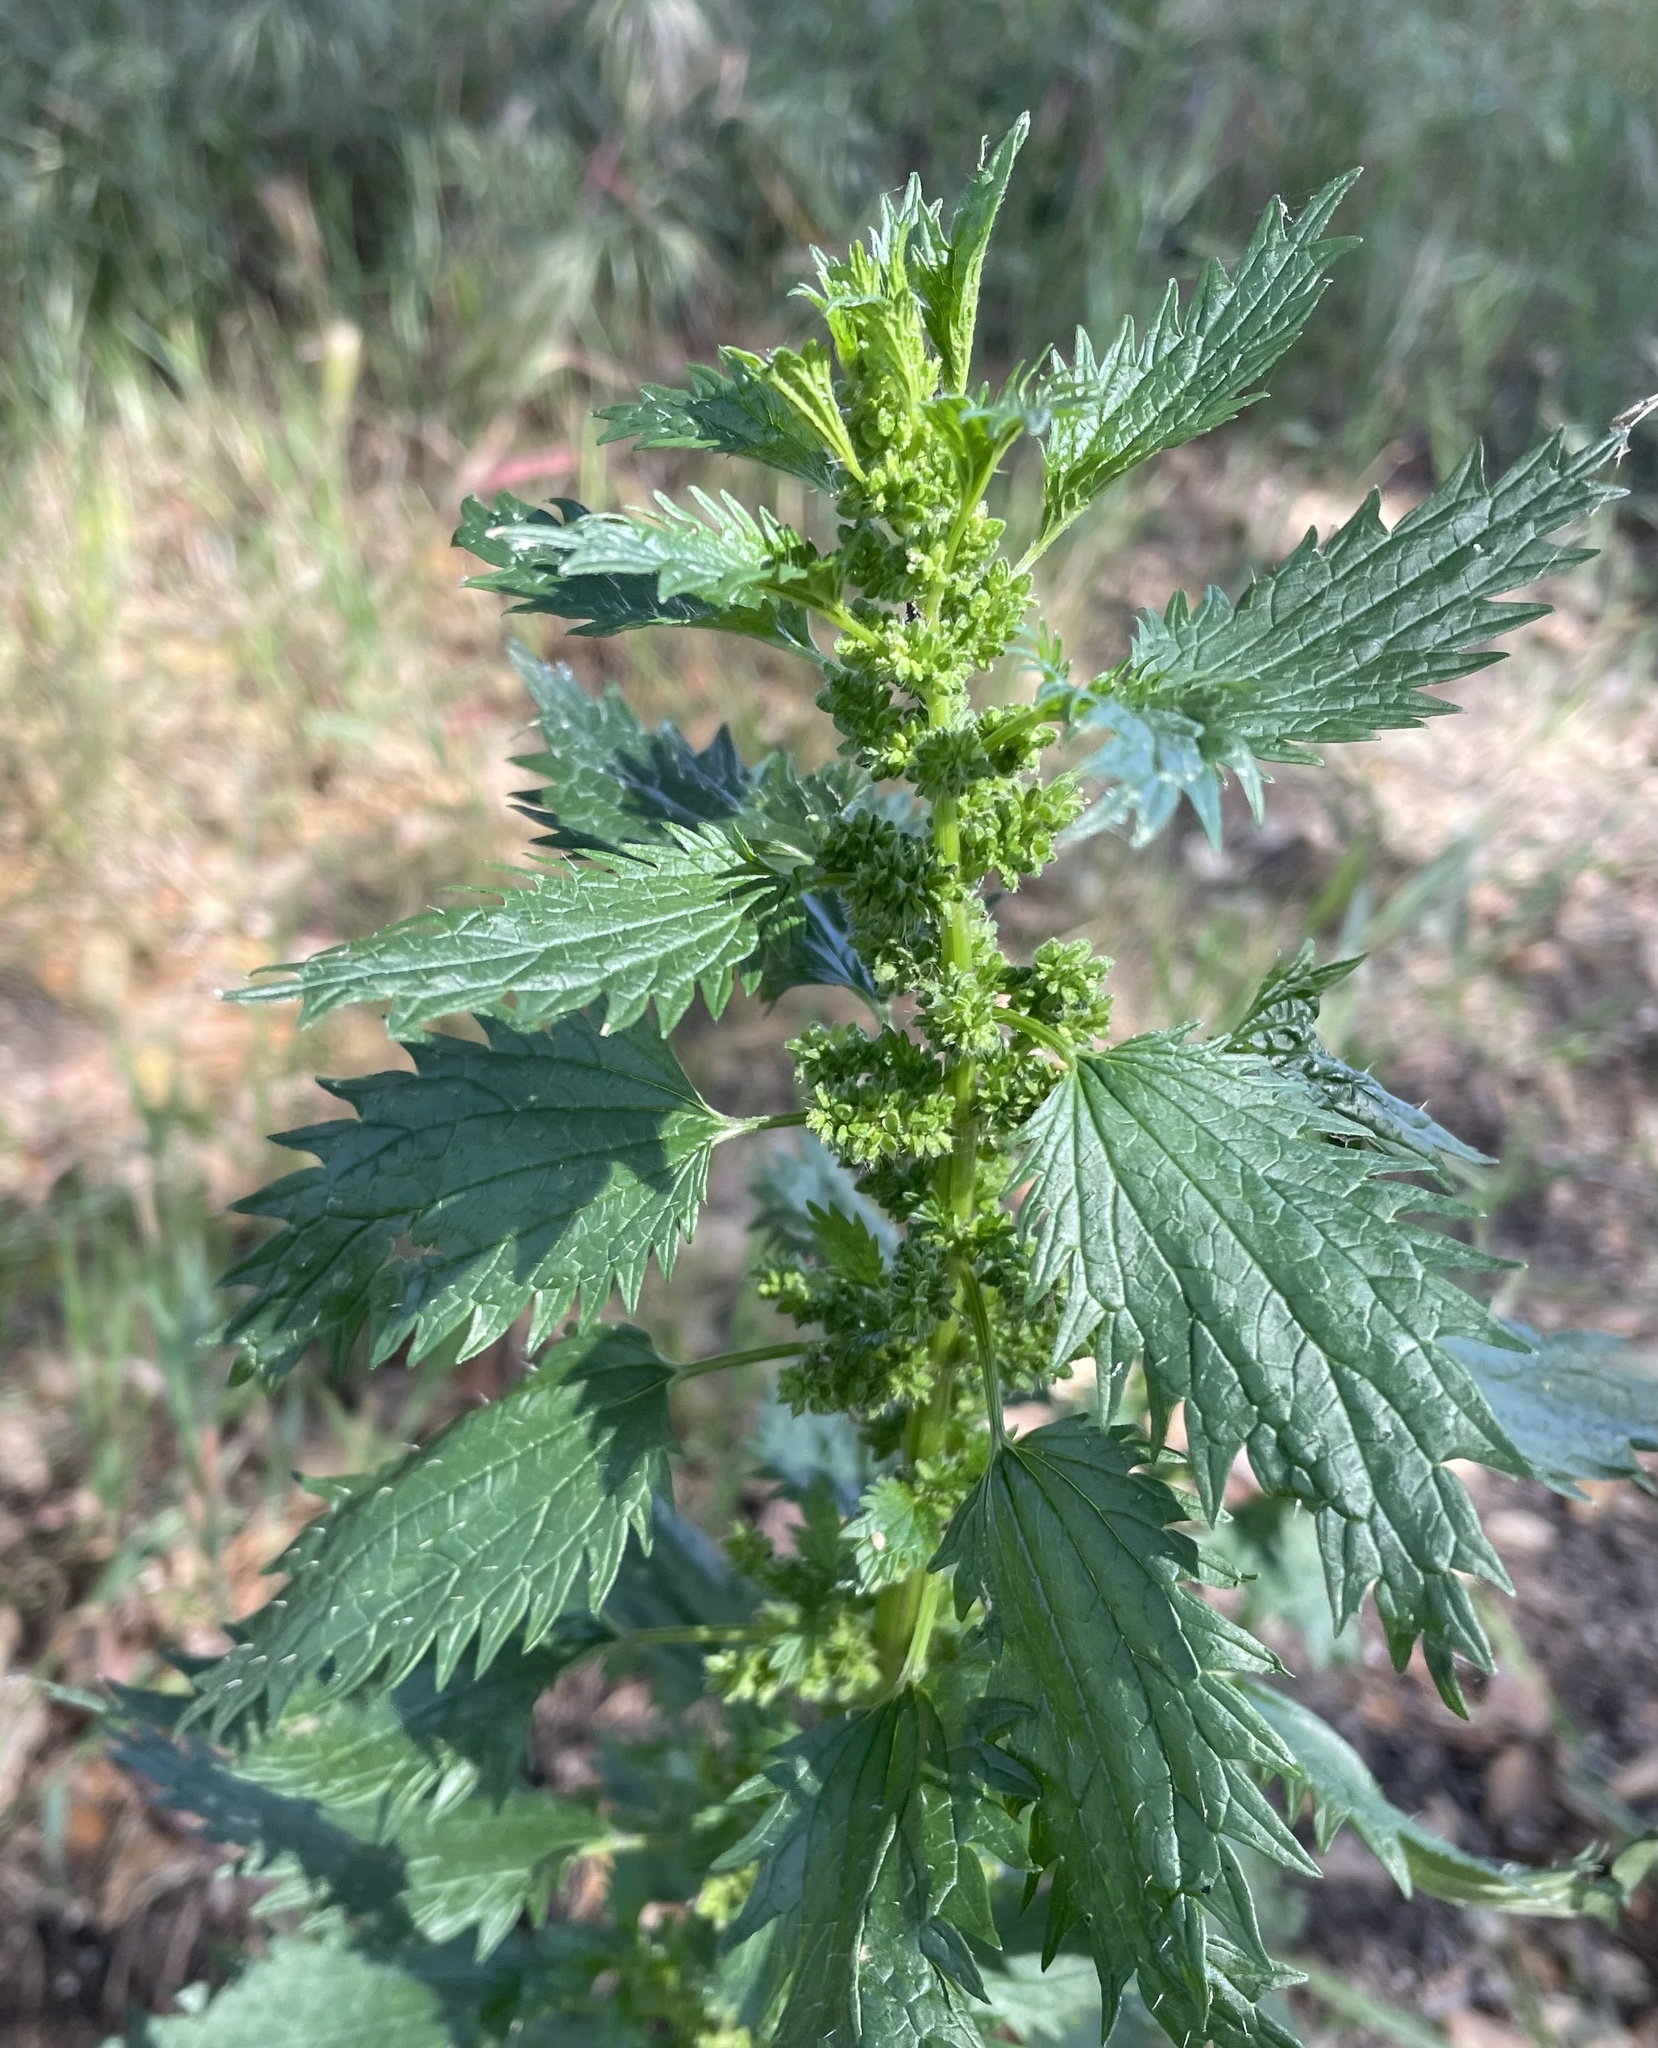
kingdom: Plantae
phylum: Tracheophyta
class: Magnoliopsida
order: Rosales
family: Urticaceae
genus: Urtica
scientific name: Urtica urens
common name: Dwarf nettle
